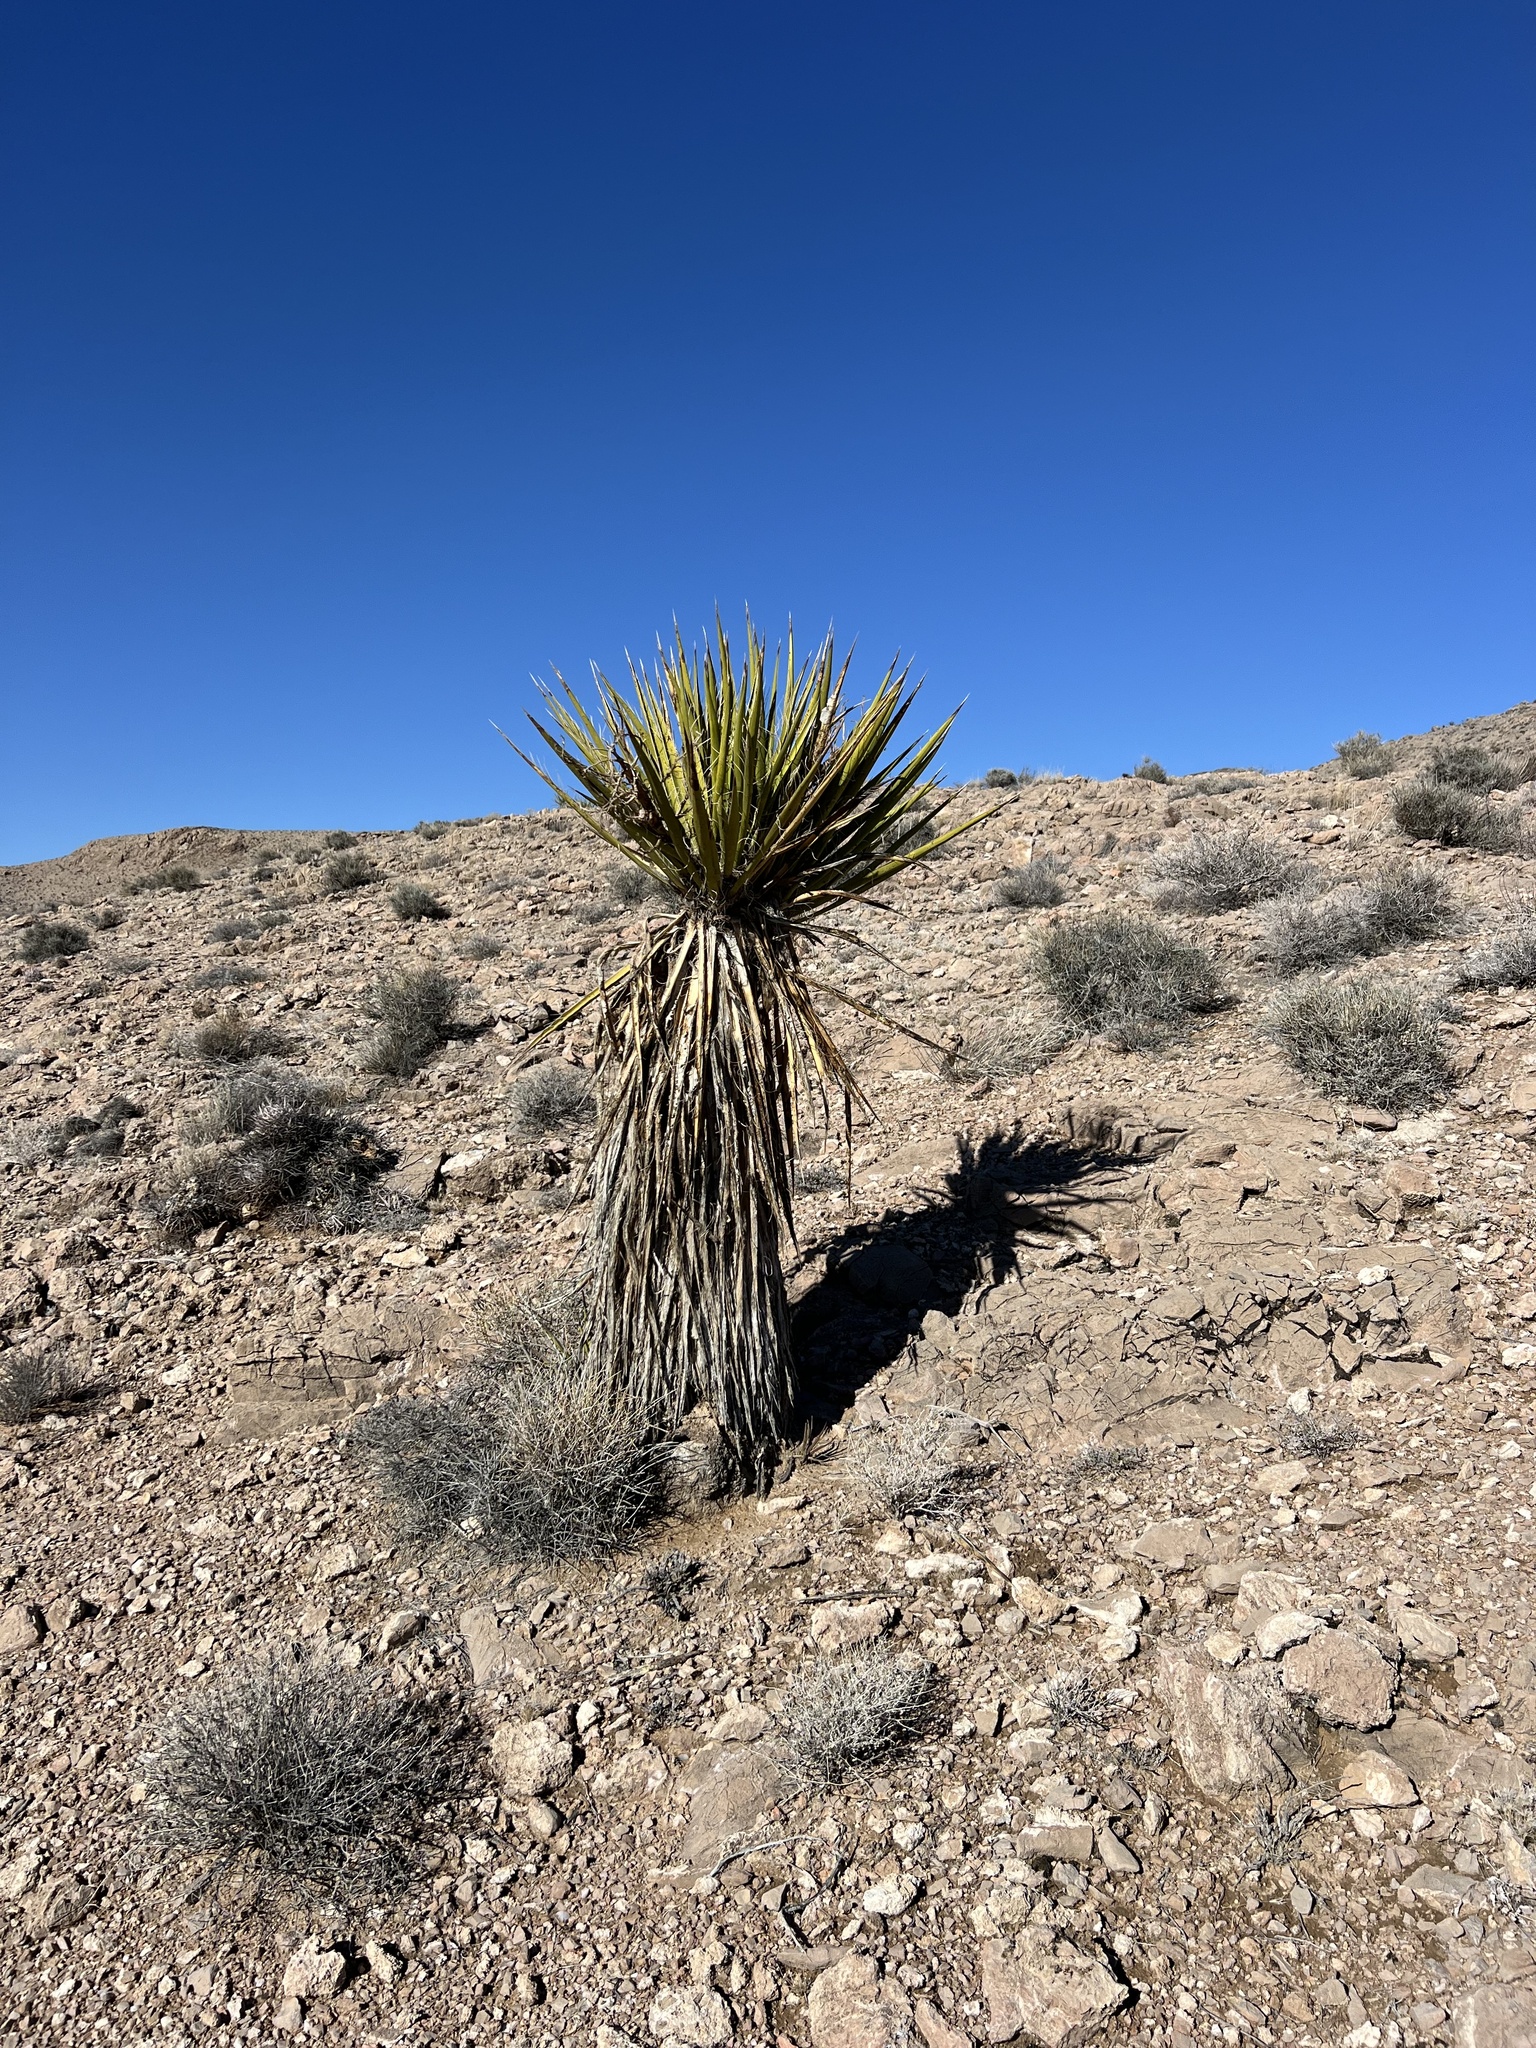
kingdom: Plantae
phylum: Tracheophyta
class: Liliopsida
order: Asparagales
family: Asparagaceae
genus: Yucca
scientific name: Yucca schidigera
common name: Mojave yucca
